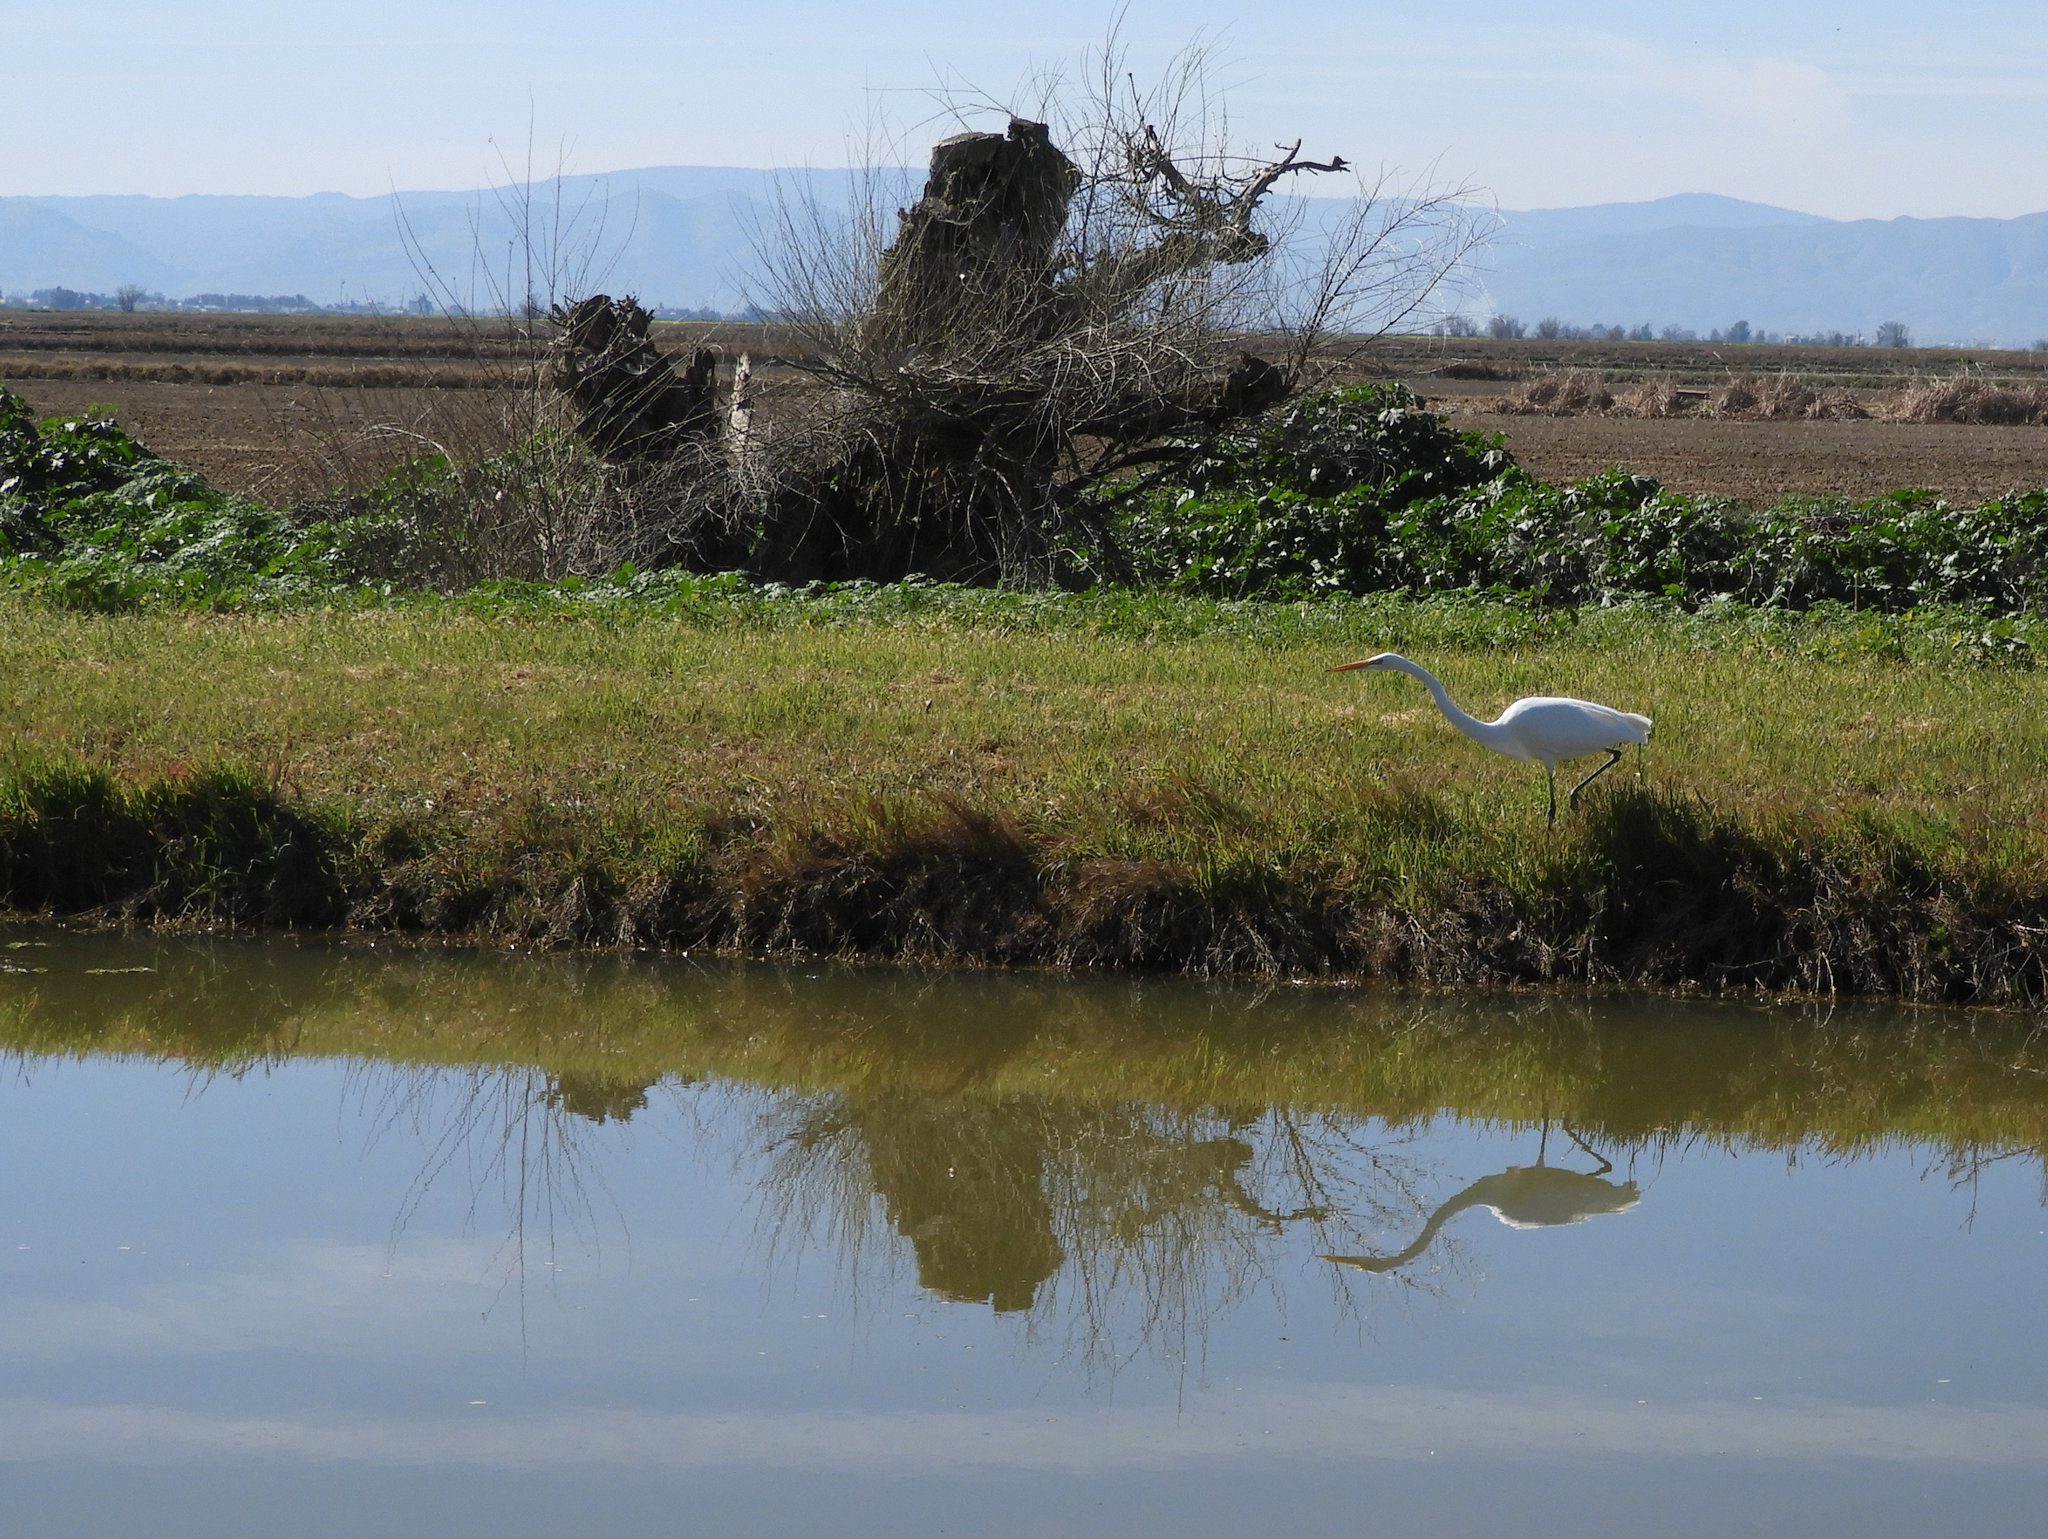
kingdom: Animalia
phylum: Chordata
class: Aves
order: Pelecaniformes
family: Ardeidae
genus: Ardea
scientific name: Ardea alba
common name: Great egret
